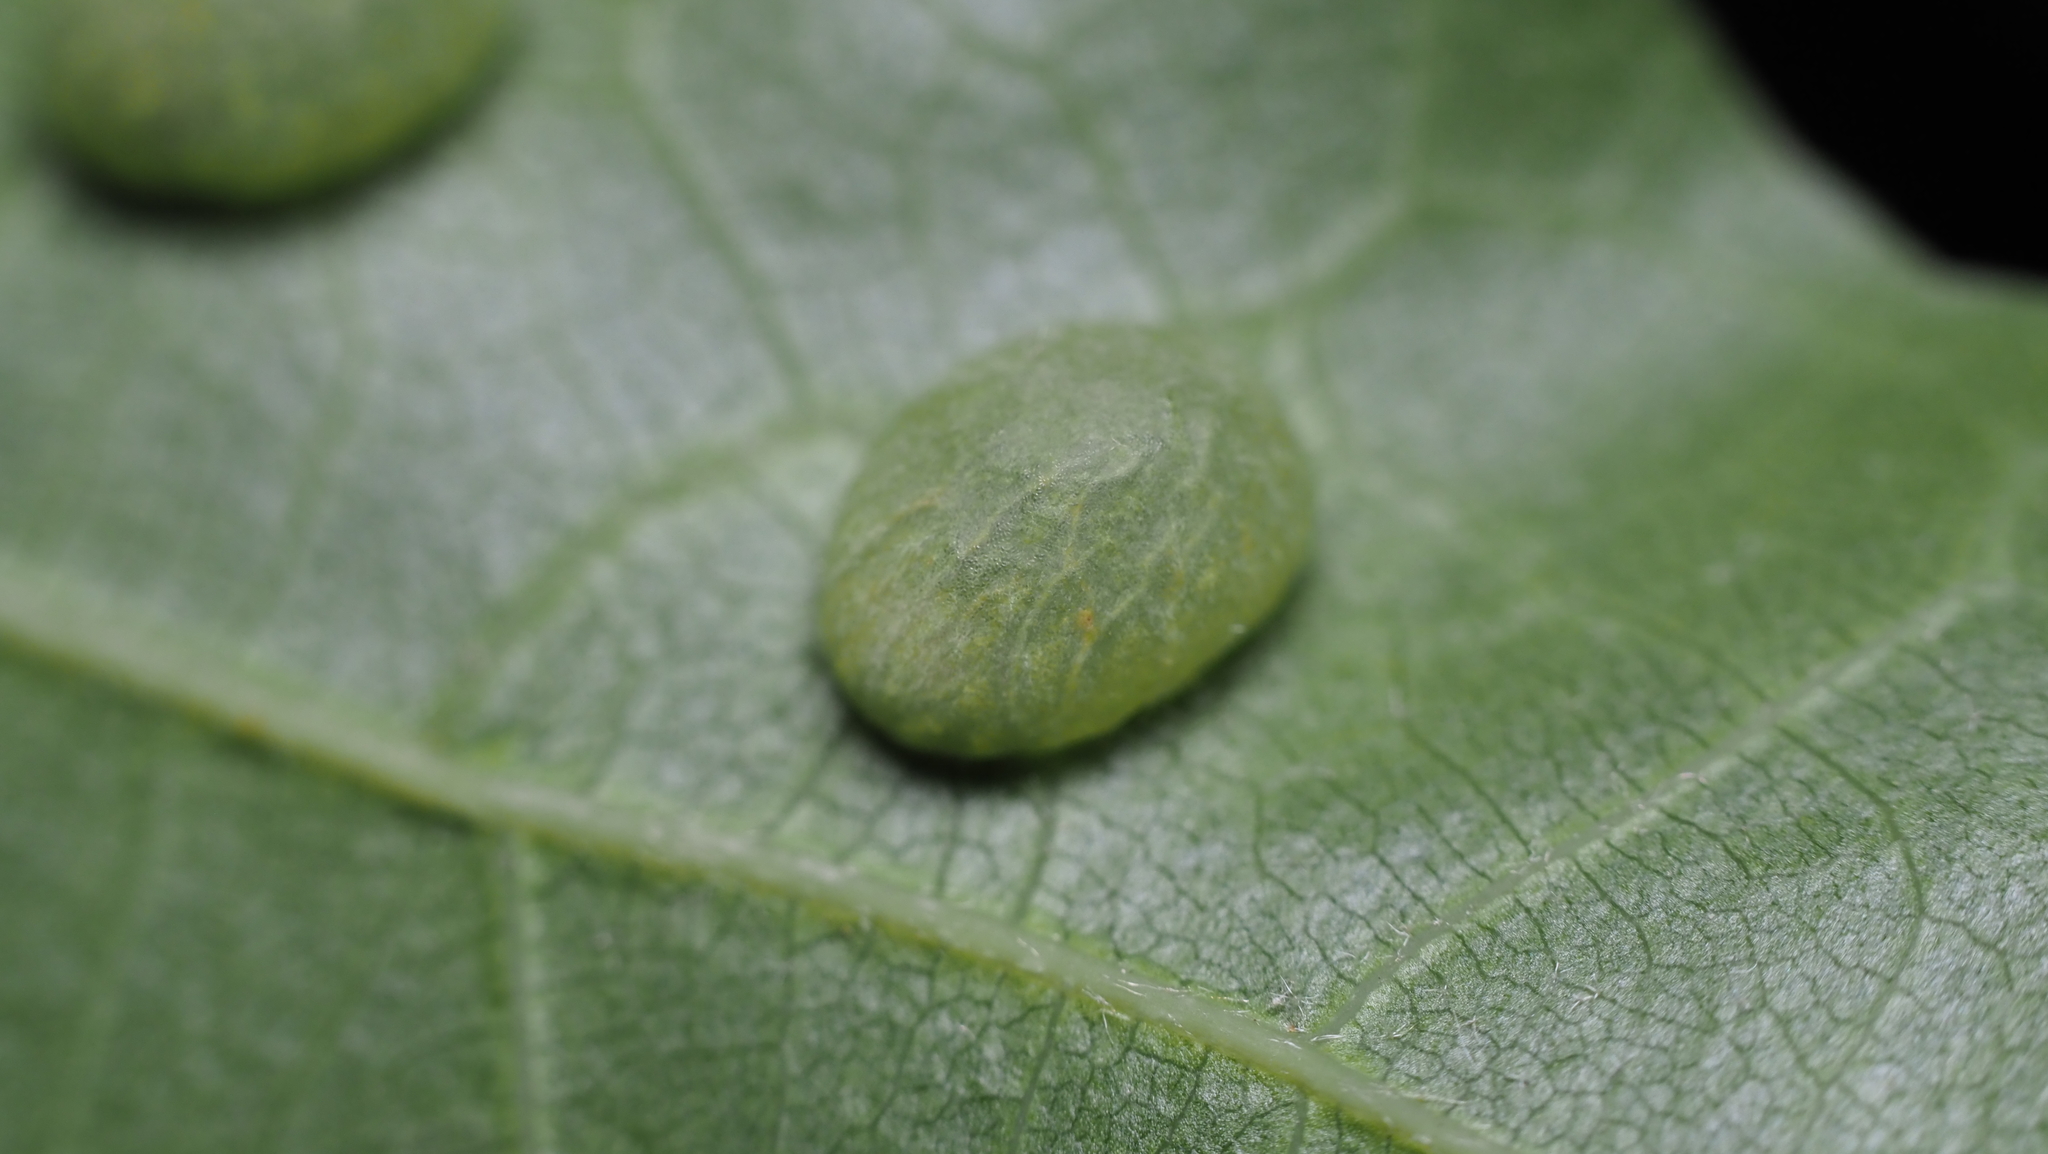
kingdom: Animalia
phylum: Arthropoda
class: Insecta
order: Hymenoptera
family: Cynipidae
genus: Dryocosmus
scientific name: Dryocosmus
